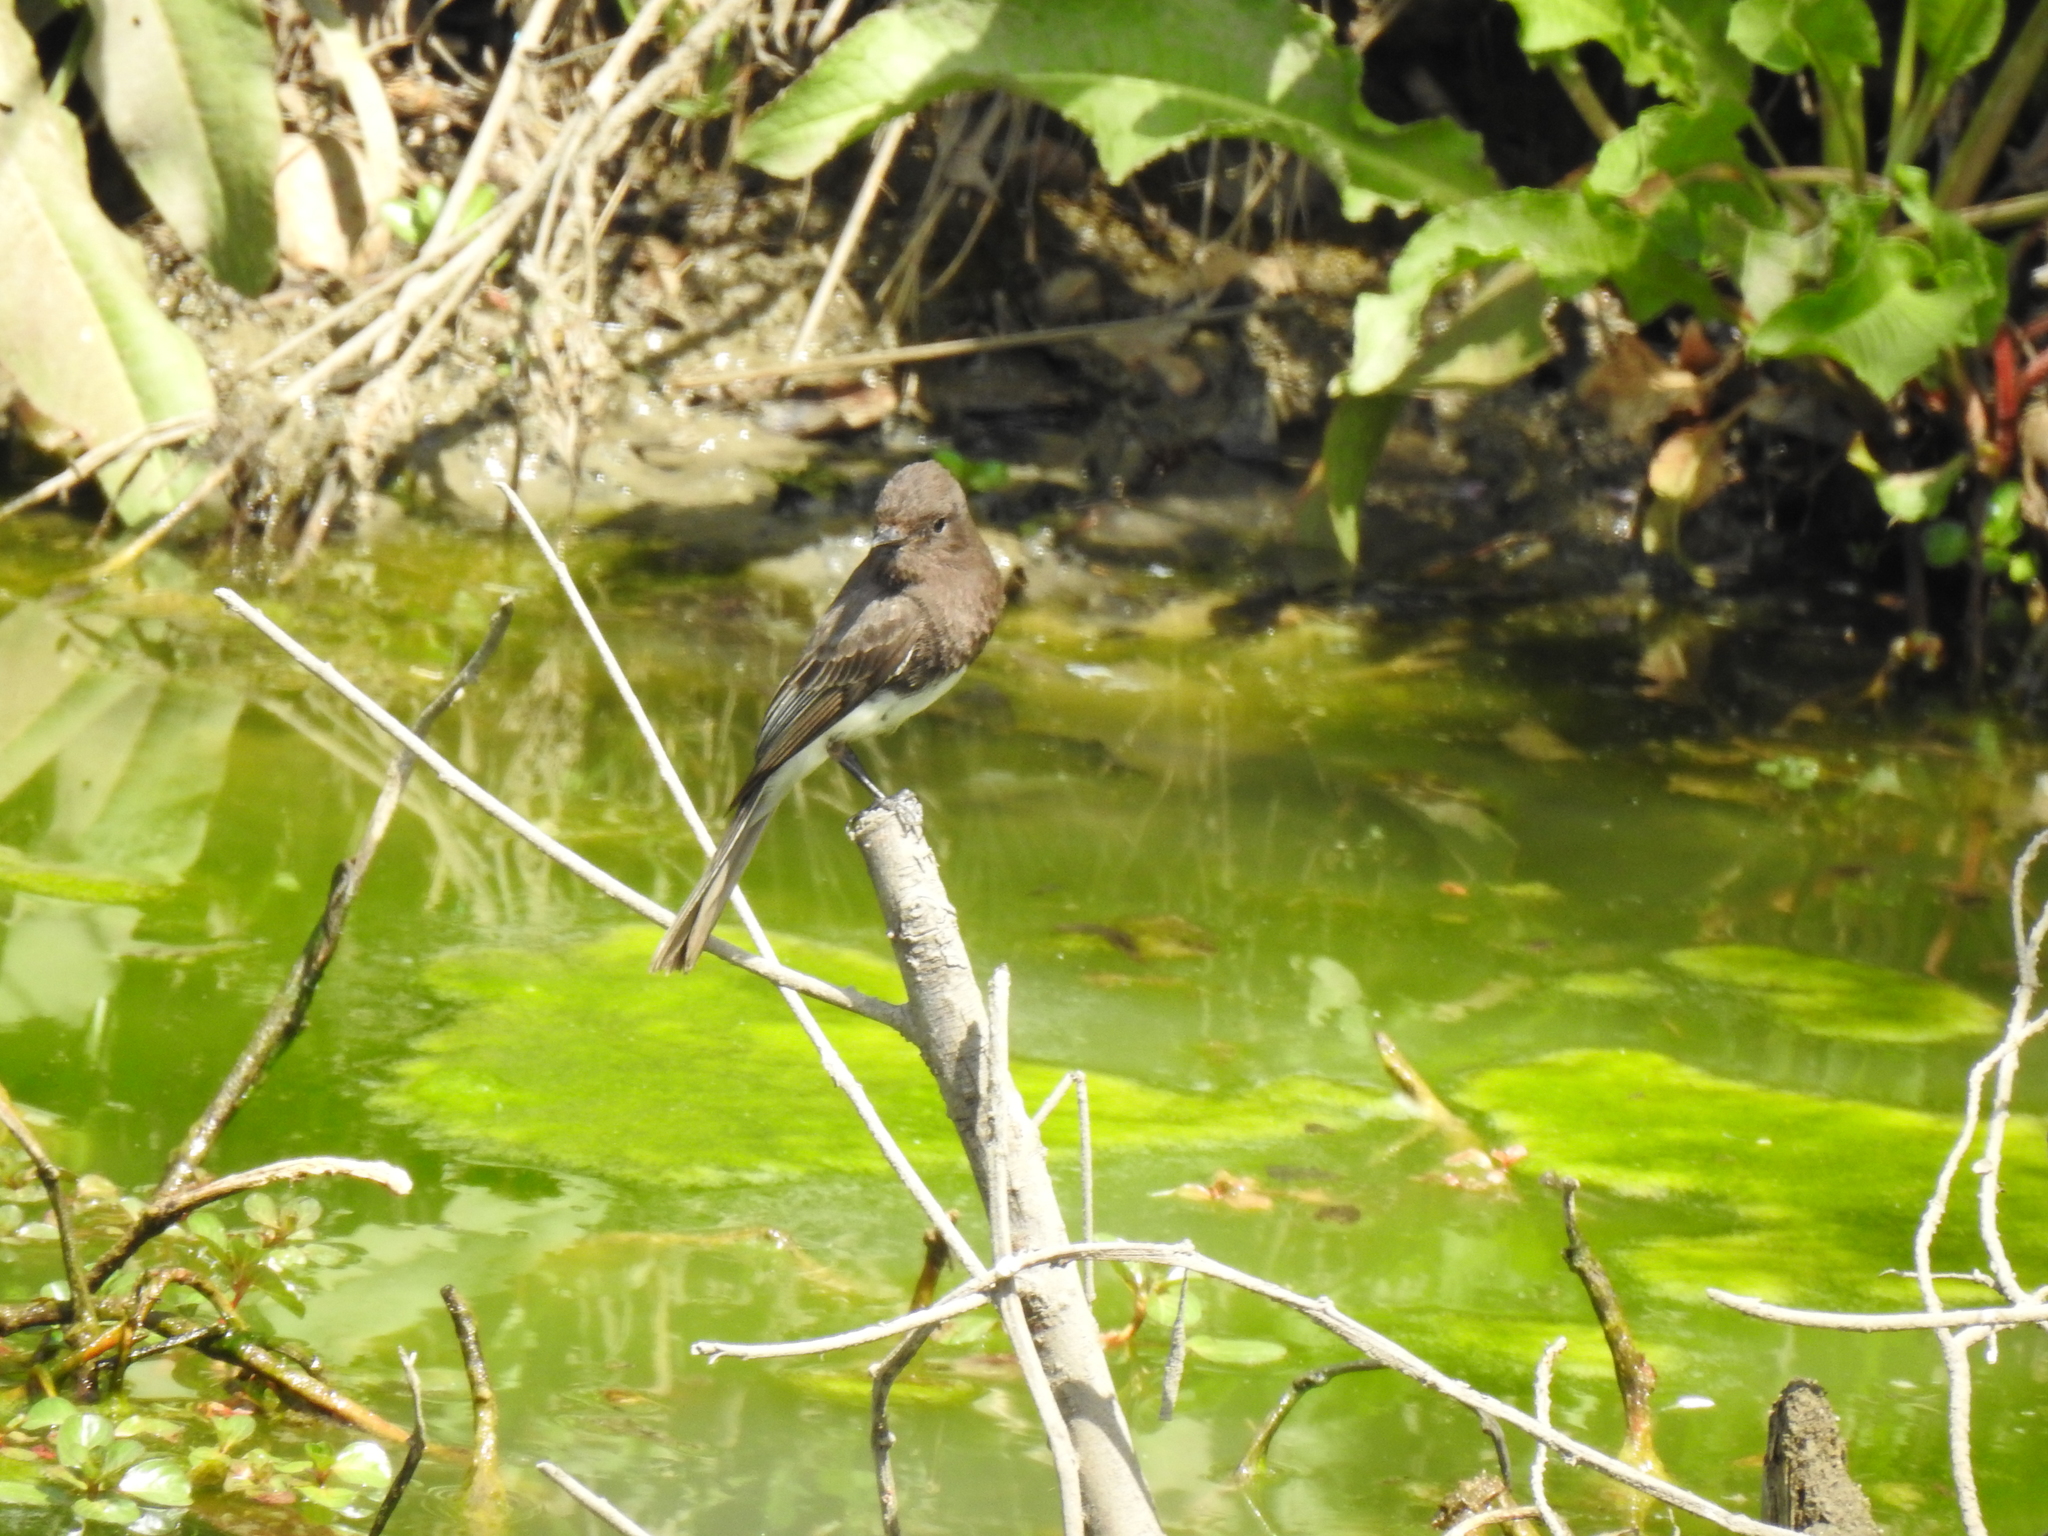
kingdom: Animalia
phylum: Chordata
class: Aves
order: Passeriformes
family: Tyrannidae
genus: Sayornis
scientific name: Sayornis nigricans
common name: Black phoebe
